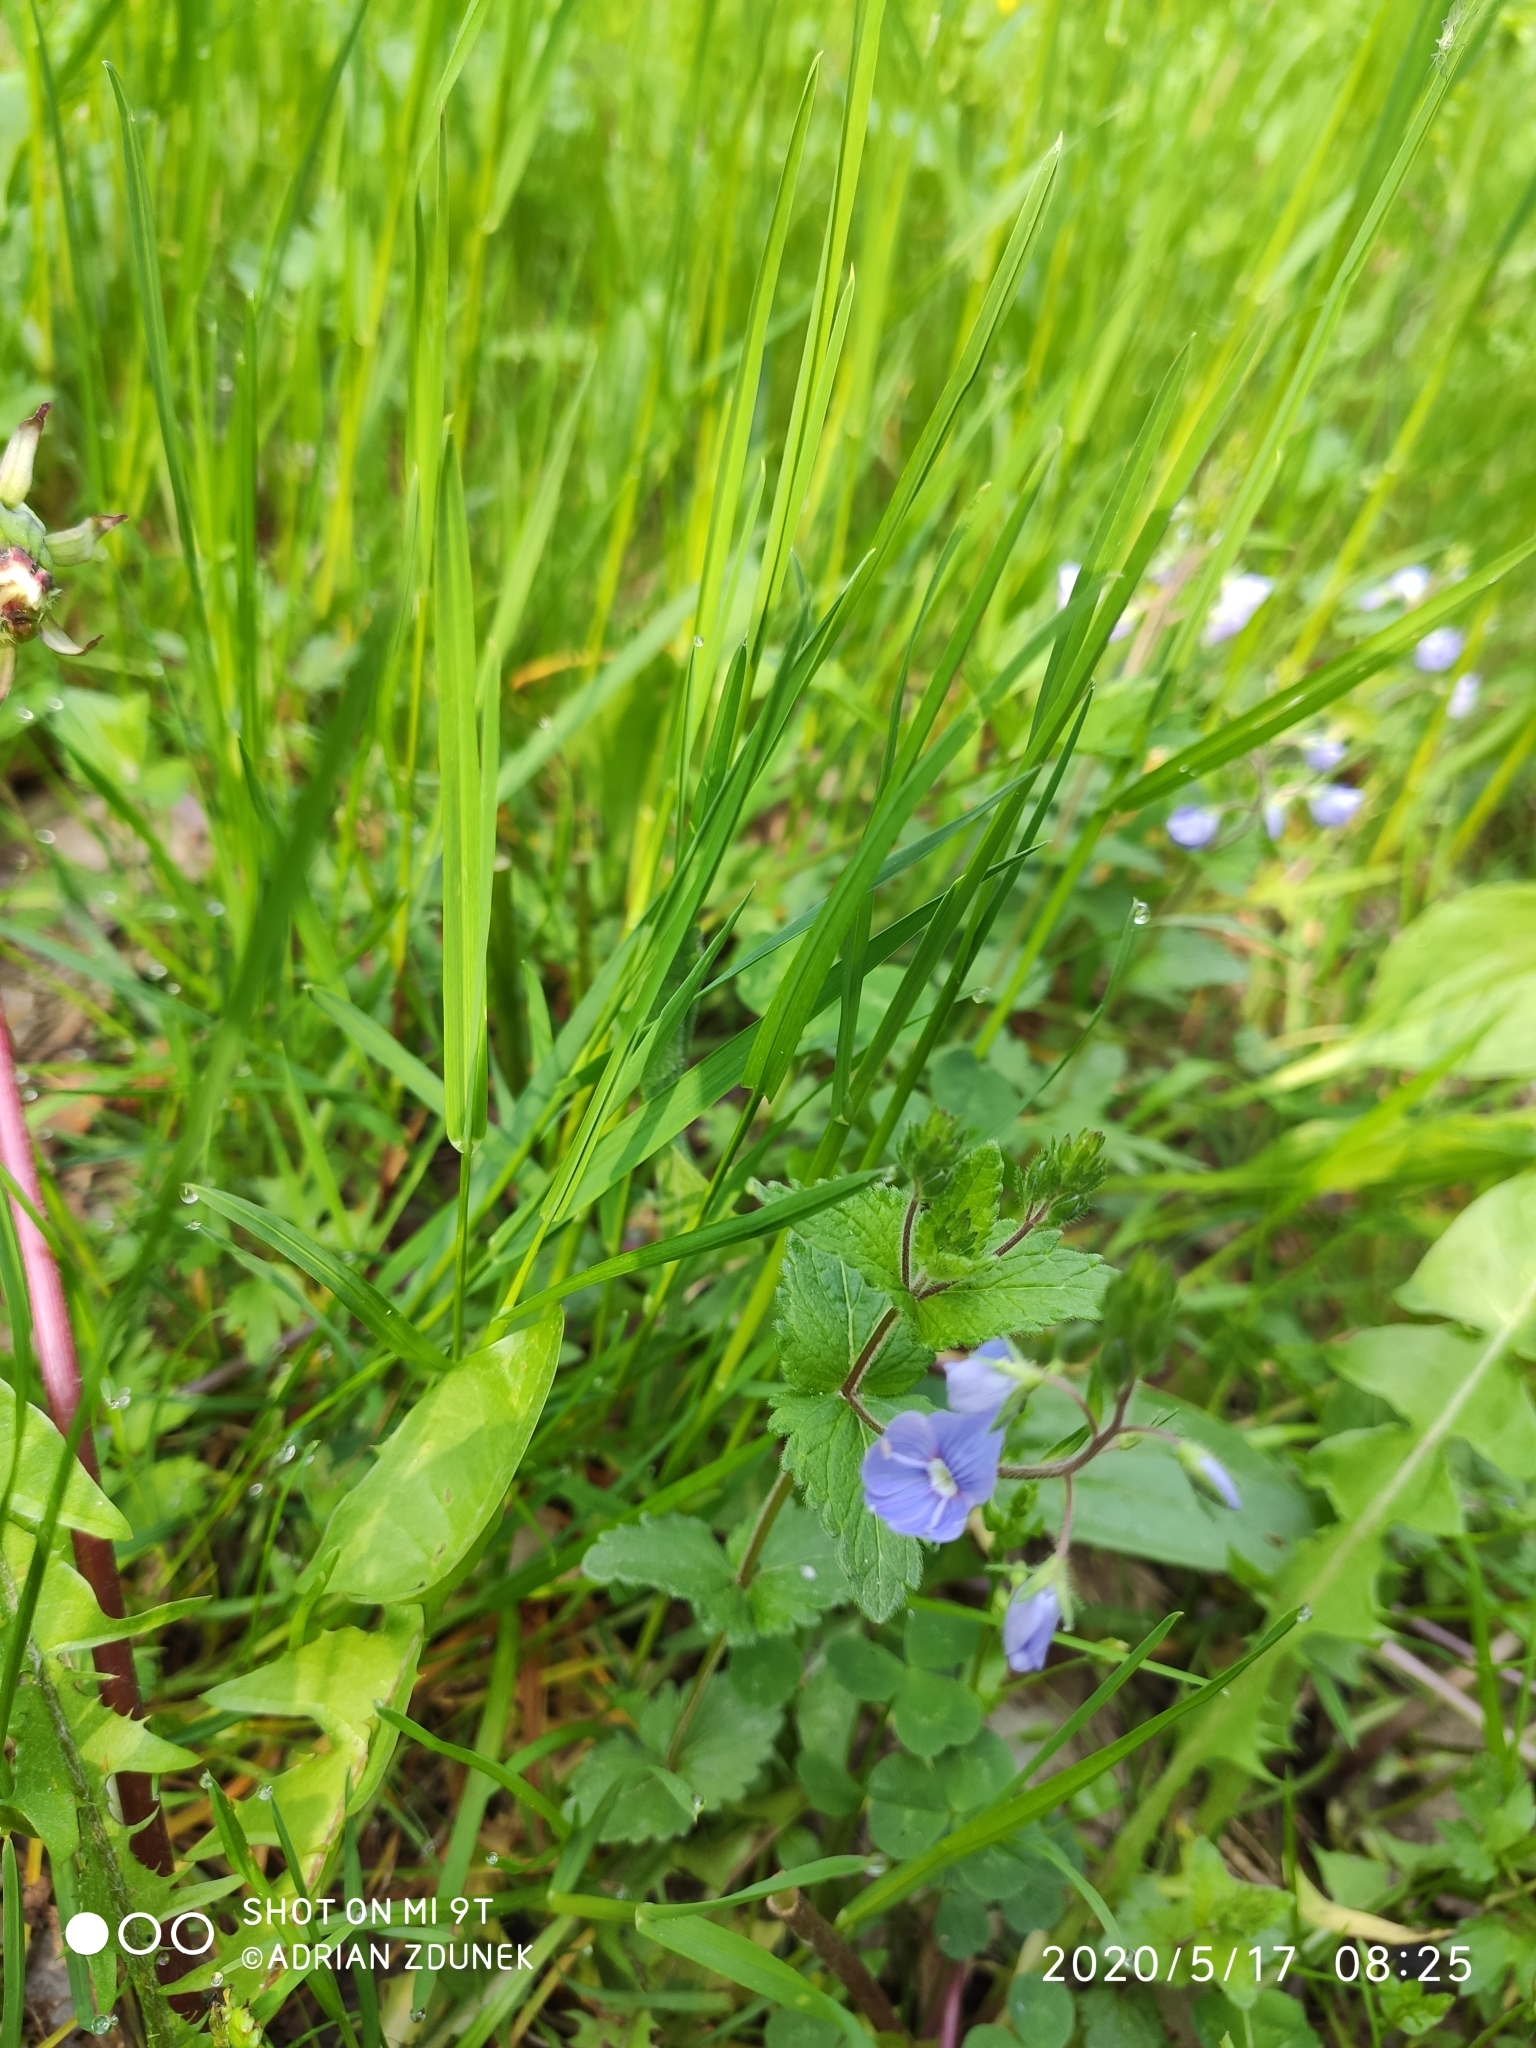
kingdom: Plantae
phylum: Tracheophyta
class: Magnoliopsida
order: Lamiales
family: Plantaginaceae
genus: Veronica
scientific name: Veronica chamaedrys
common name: Germander speedwell
